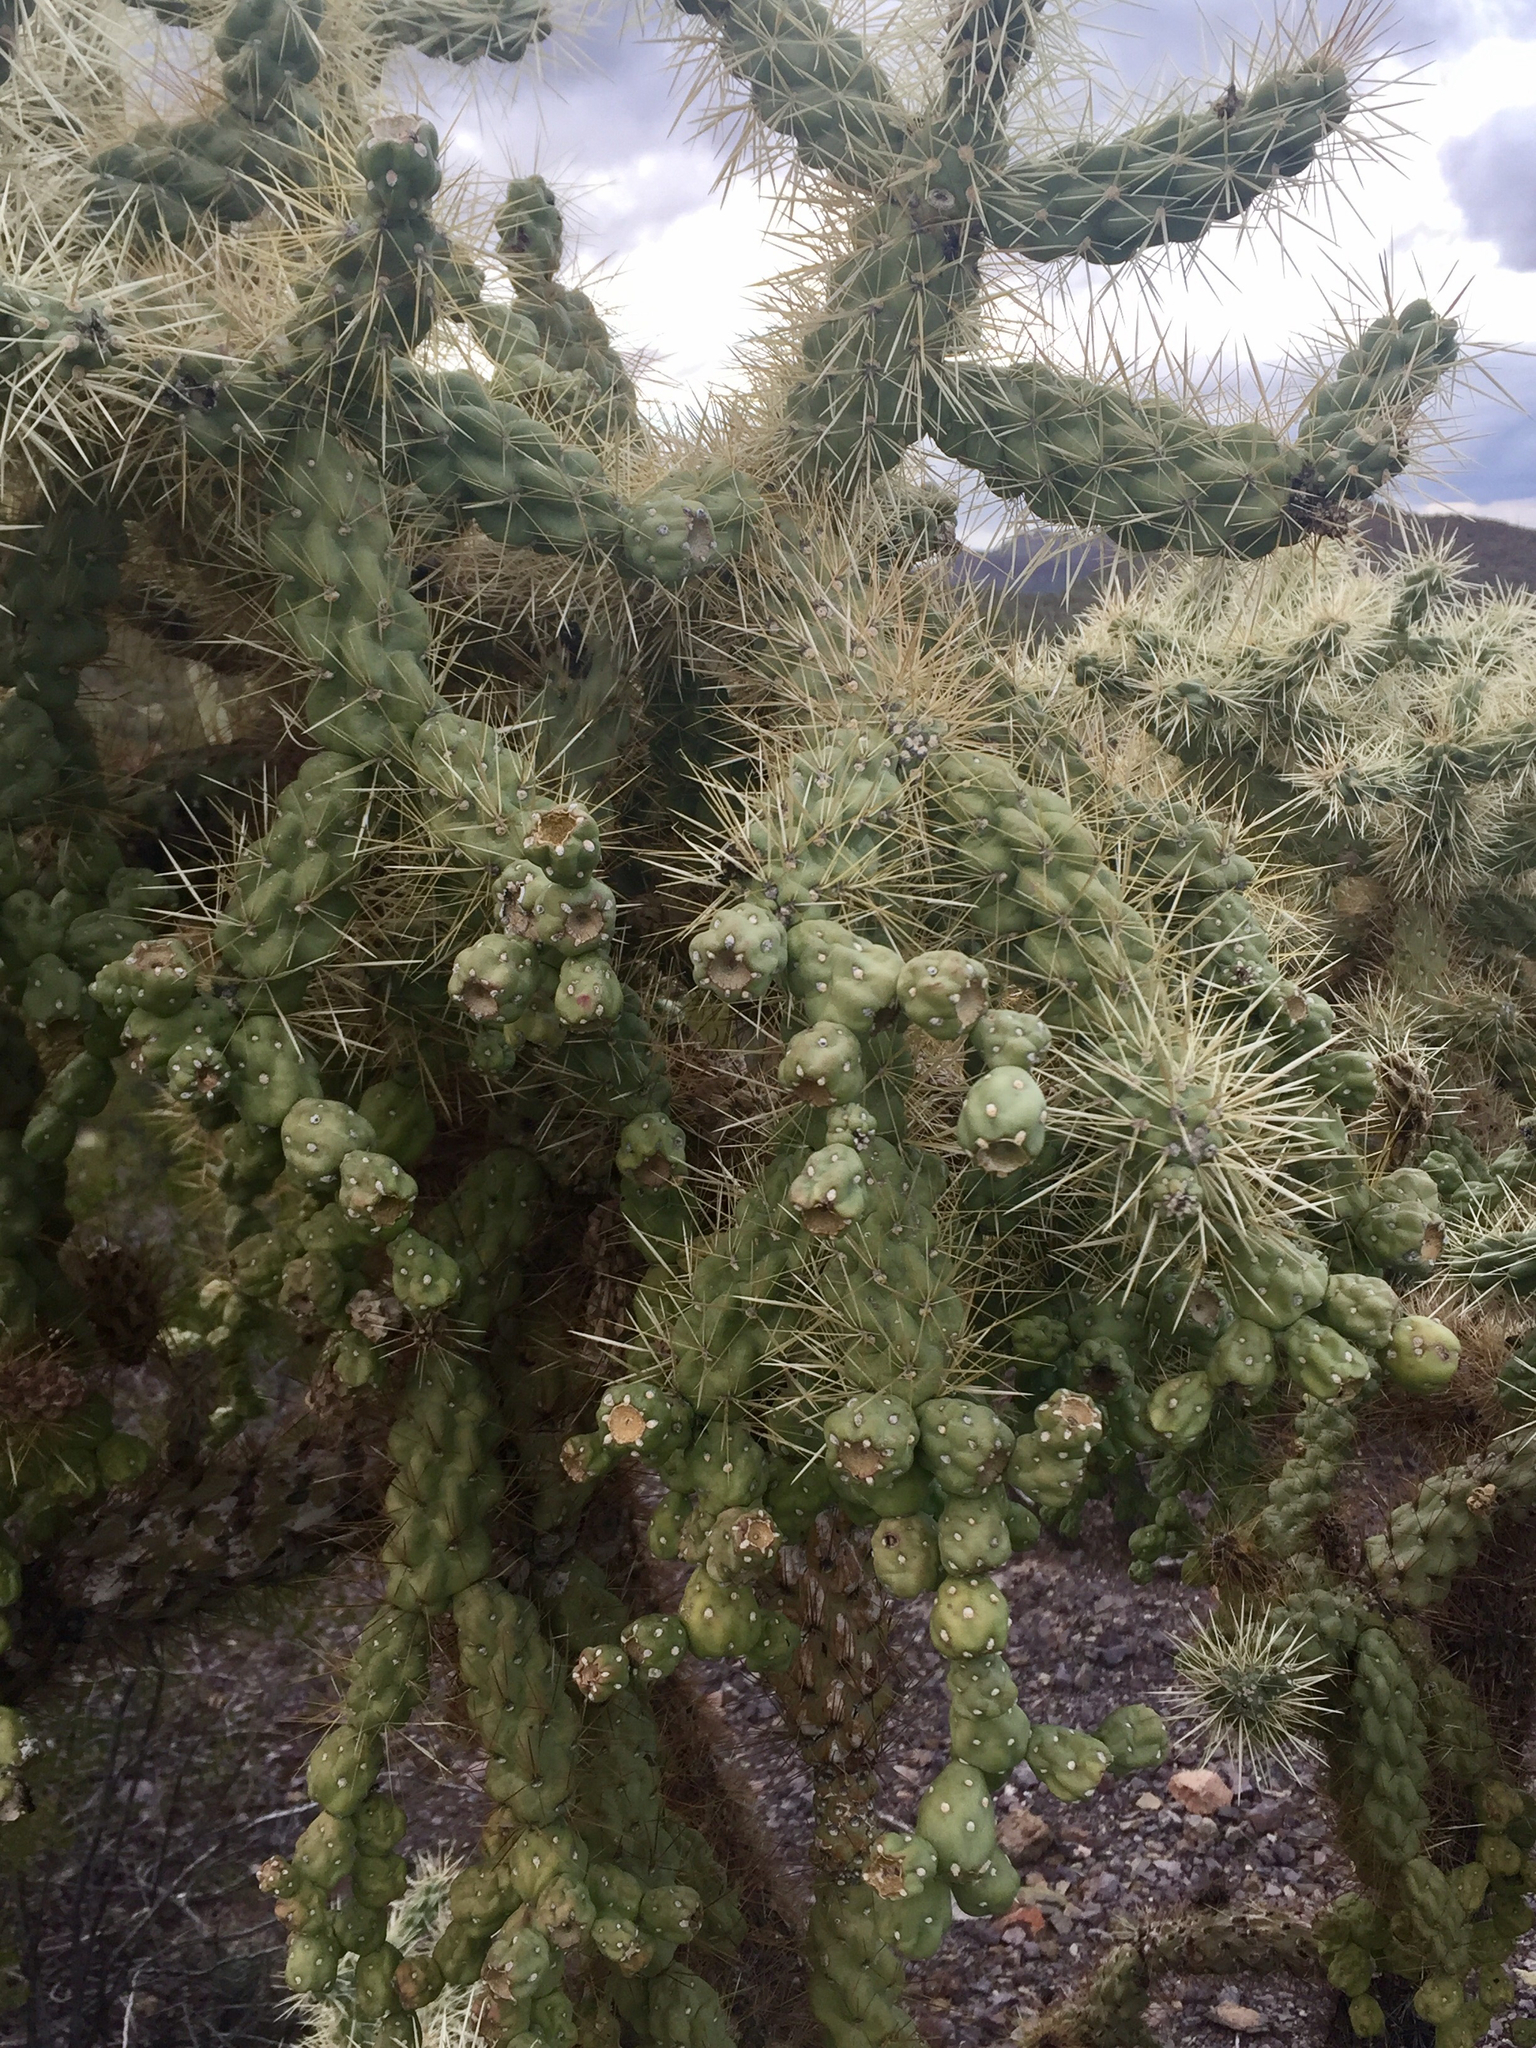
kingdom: Plantae
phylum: Tracheophyta
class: Magnoliopsida
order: Caryophyllales
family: Cactaceae
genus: Cylindropuntia
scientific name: Cylindropuntia fulgida
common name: Jumping cholla
